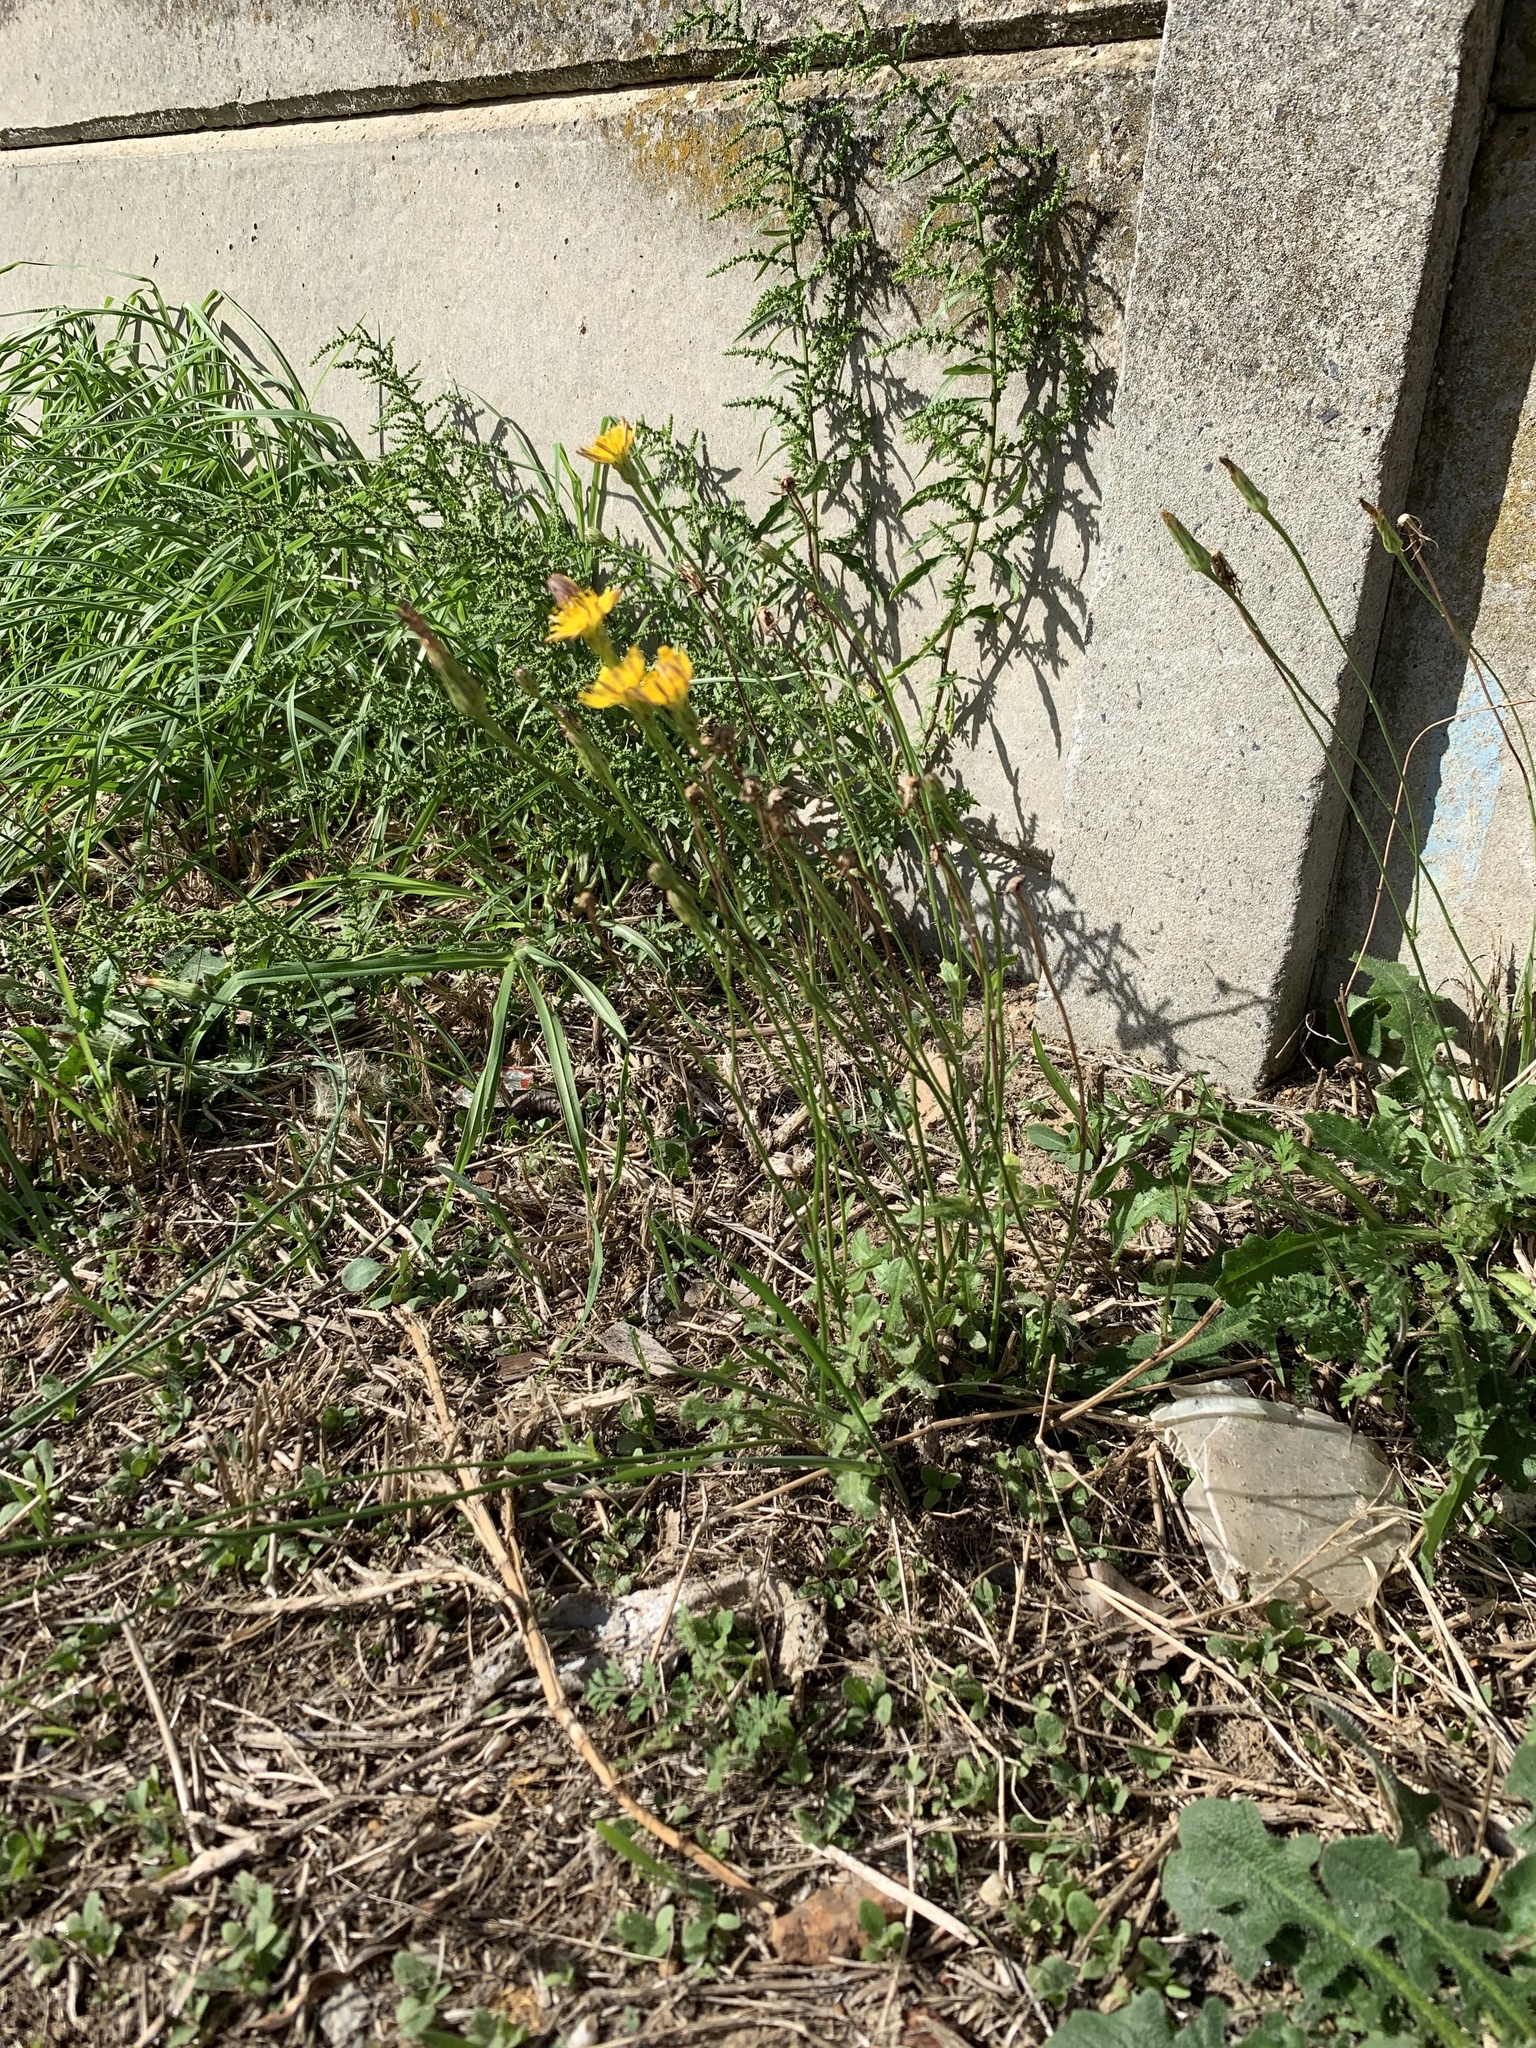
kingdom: Plantae
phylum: Tracheophyta
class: Magnoliopsida
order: Asterales
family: Asteraceae
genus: Hypochaeris
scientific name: Hypochaeris radicata
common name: Flatweed
